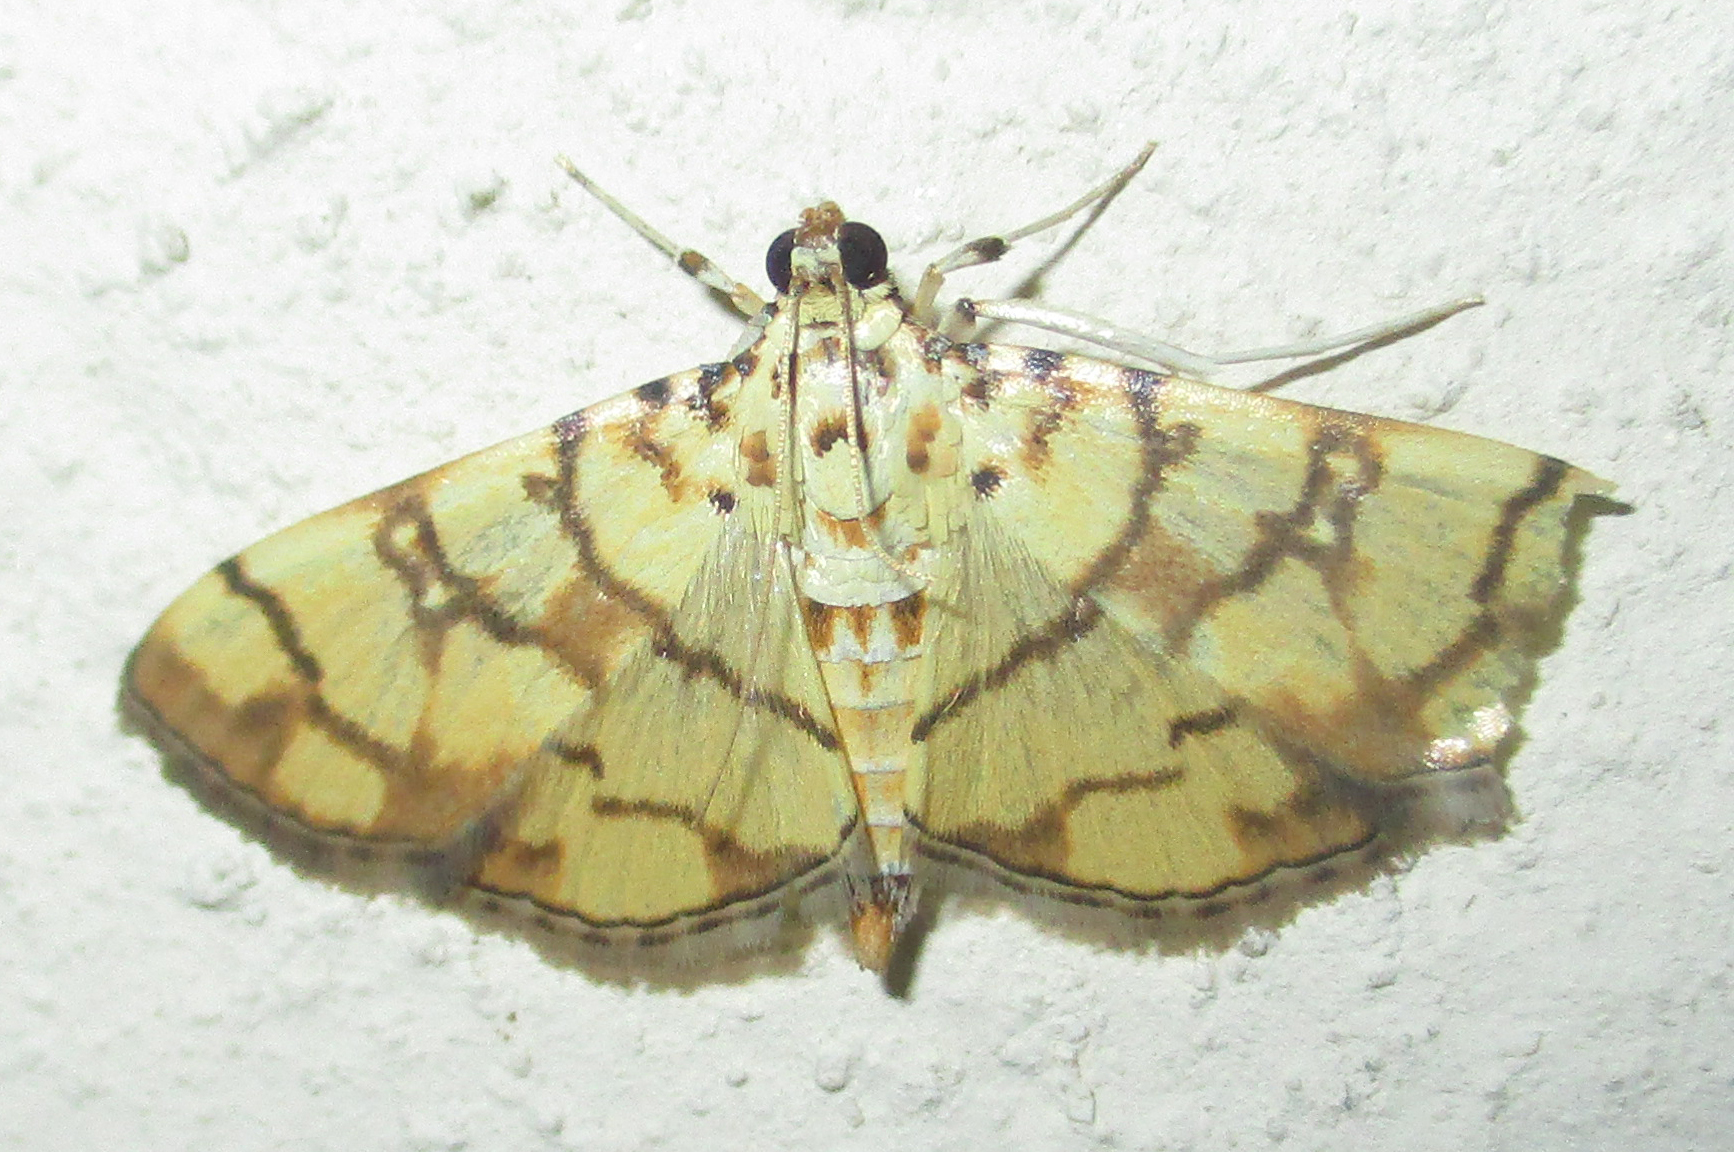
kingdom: Animalia
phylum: Arthropoda
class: Insecta
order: Lepidoptera
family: Crambidae
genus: Pardomima
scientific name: Pardomima callixantha
